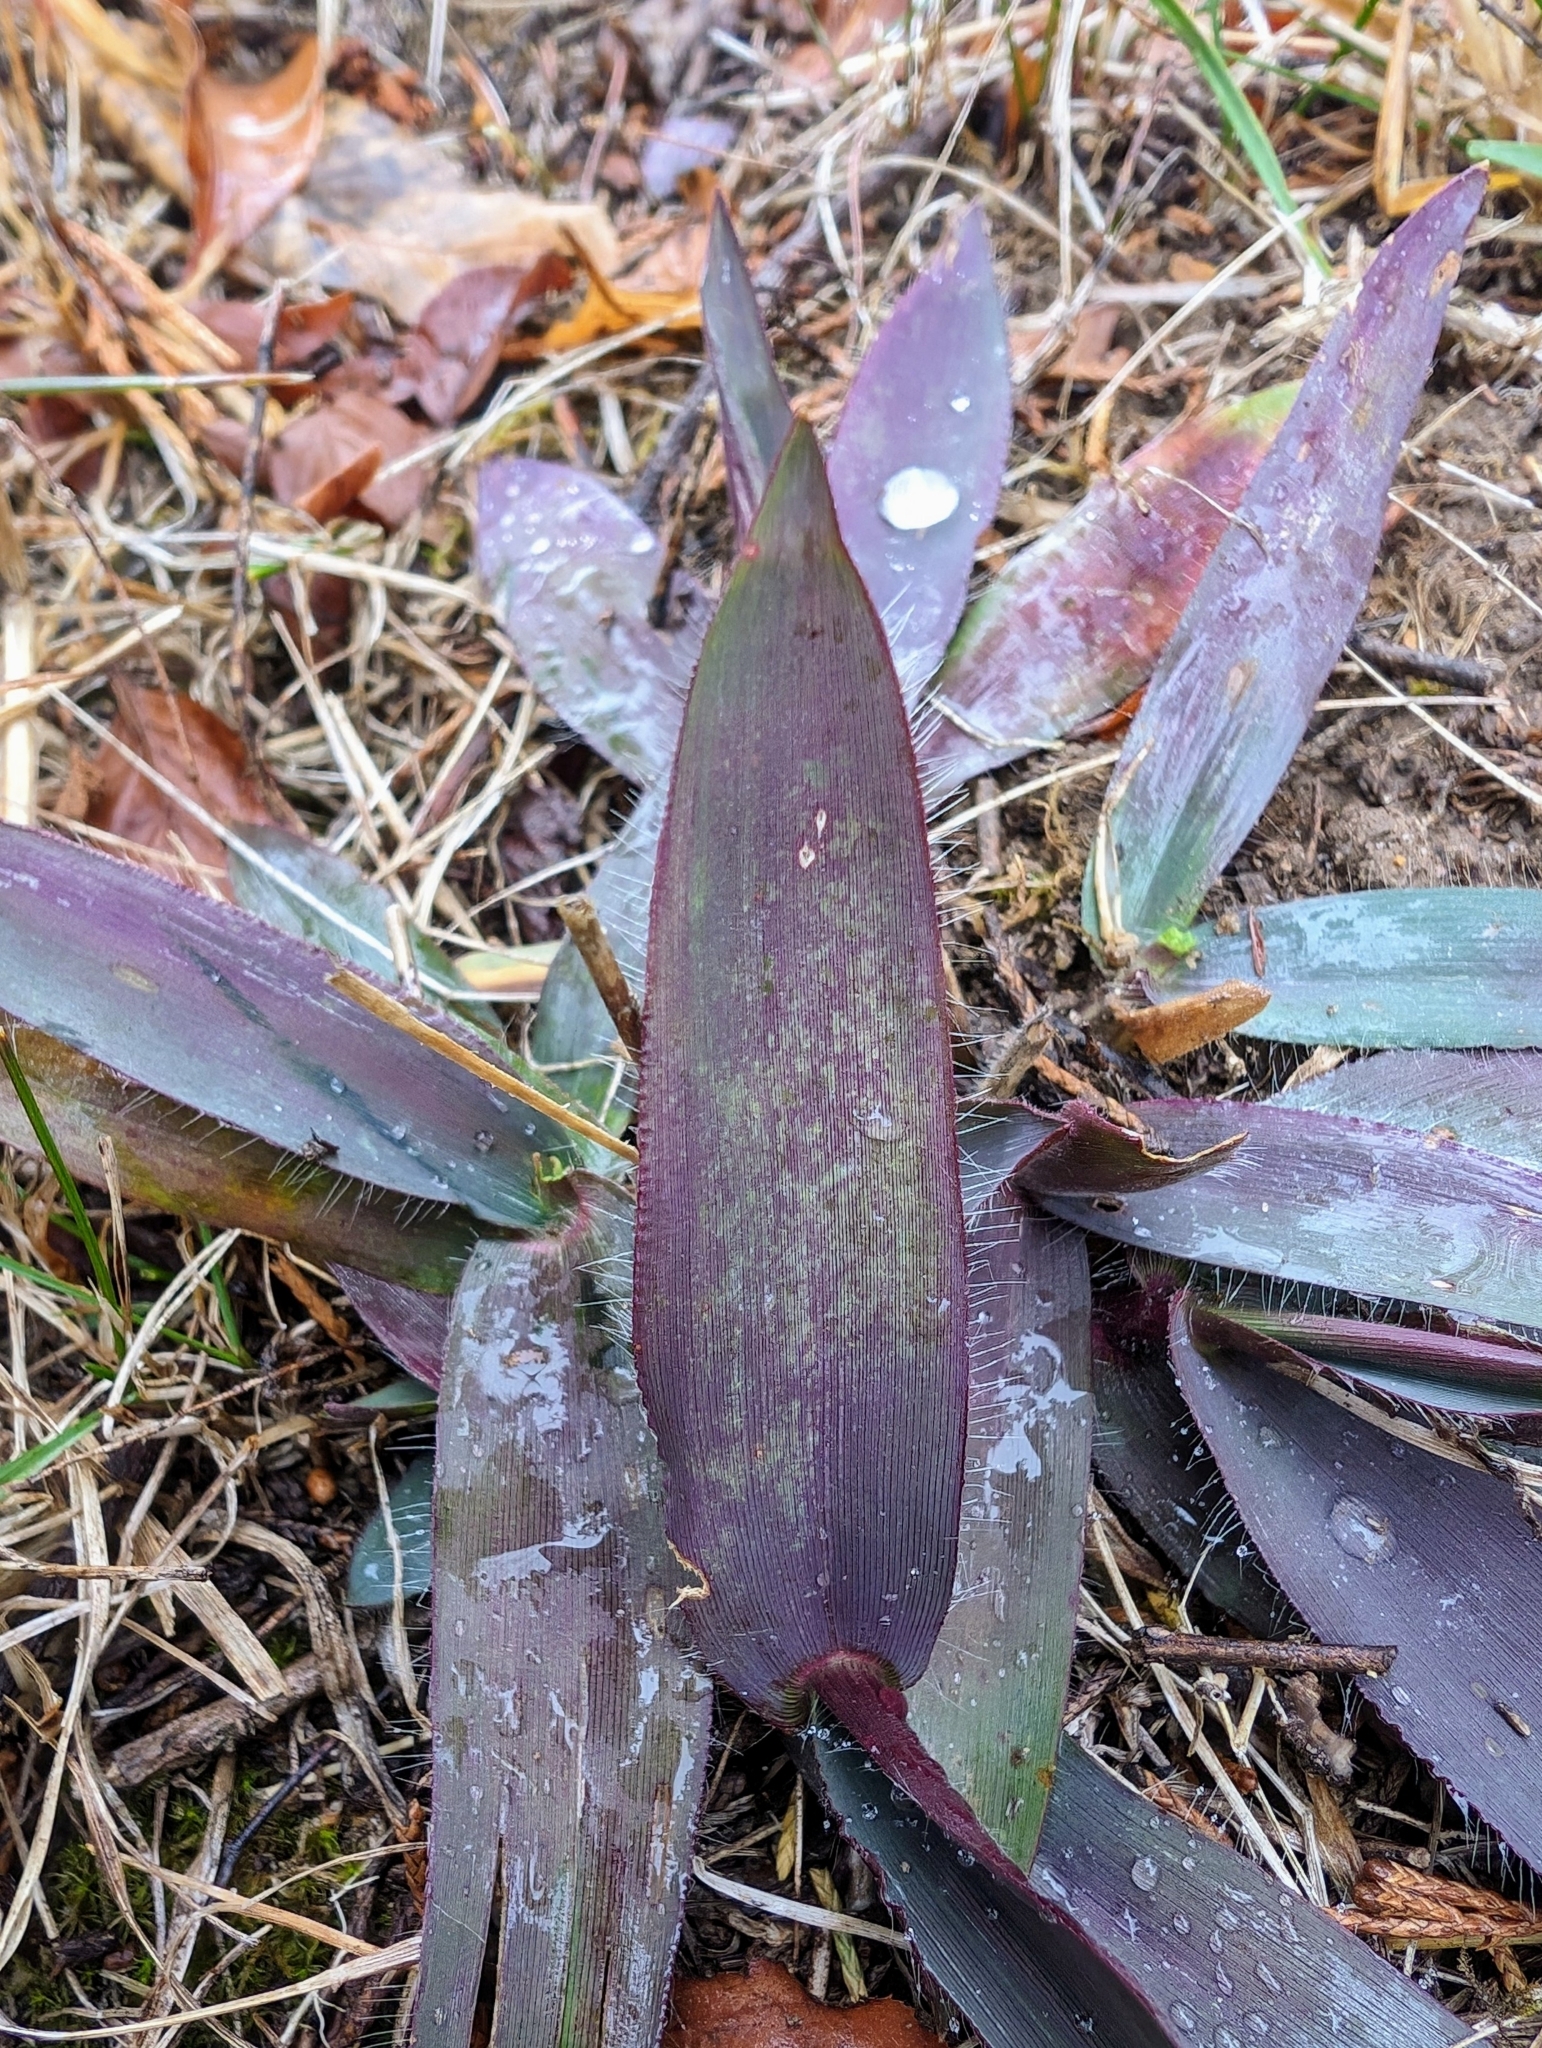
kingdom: Plantae
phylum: Tracheophyta
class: Liliopsida
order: Commelinales
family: Commelinaceae
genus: Tradescantia
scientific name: Tradescantia pallida
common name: Purpleheart
